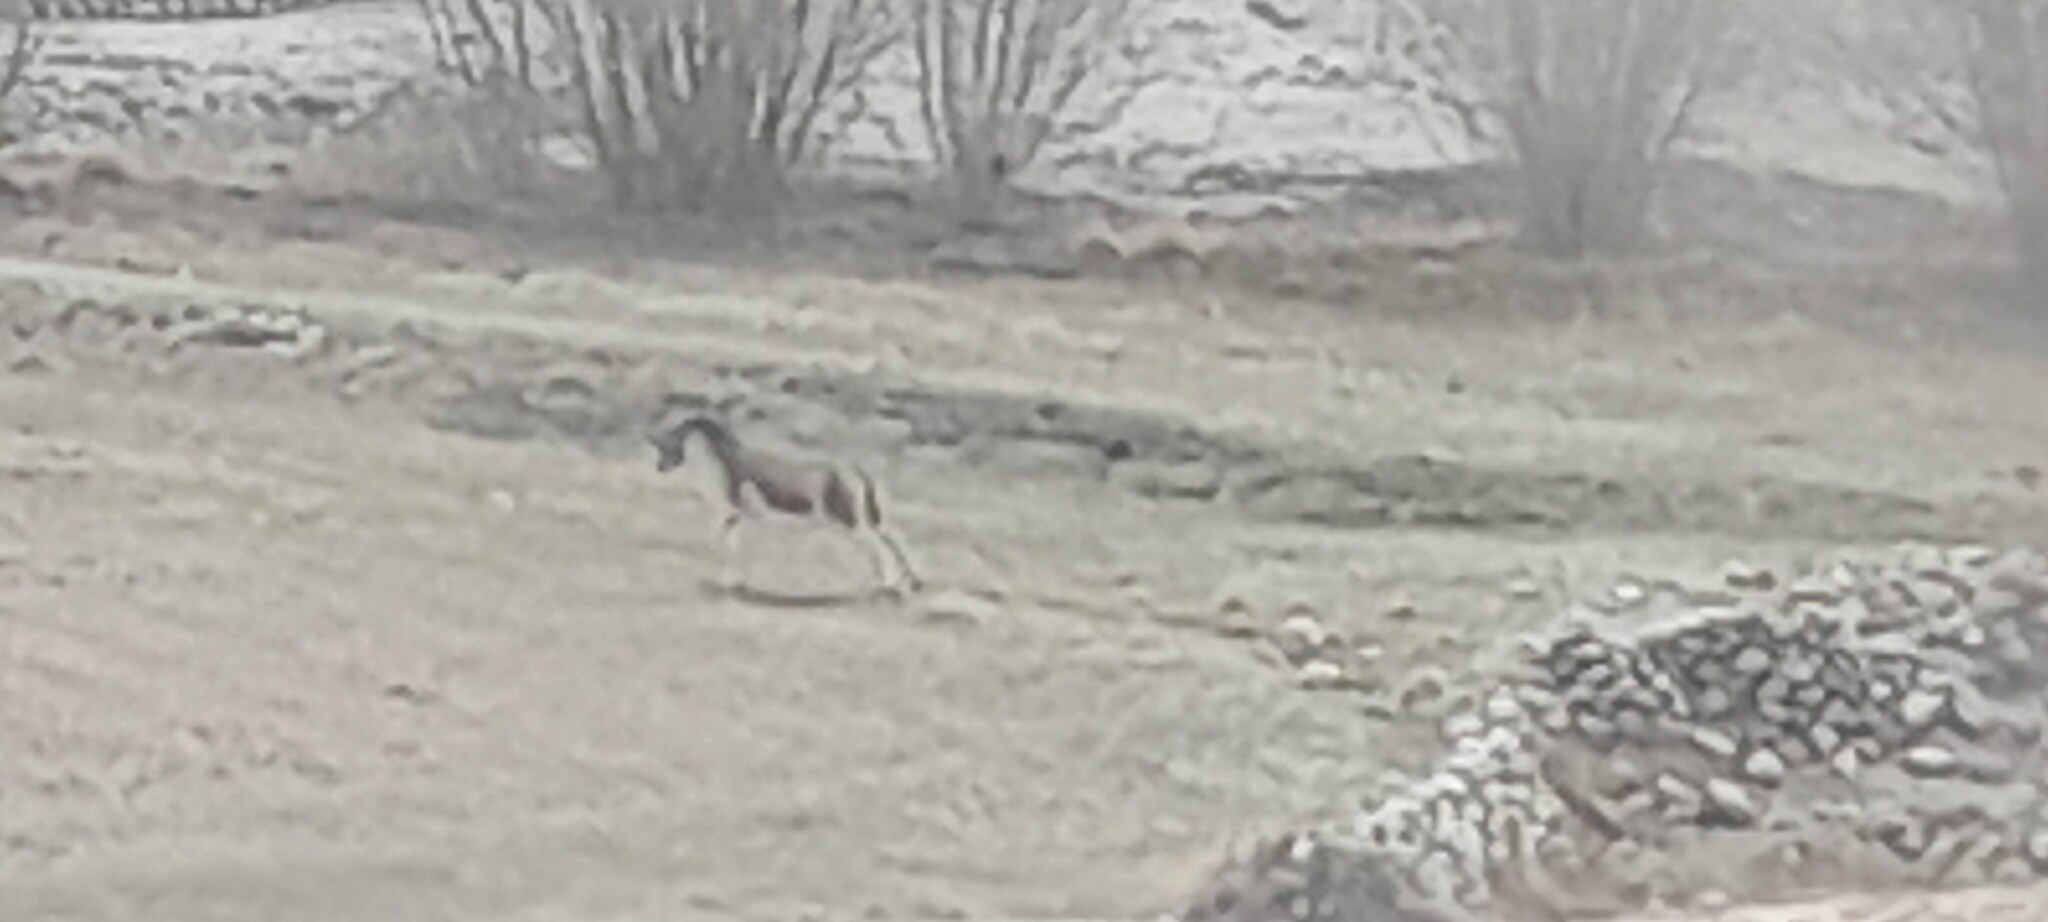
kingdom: Animalia
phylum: Chordata
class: Mammalia
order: Perissodactyla
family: Equidae
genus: Equus
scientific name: Equus kiang
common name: Kiang
